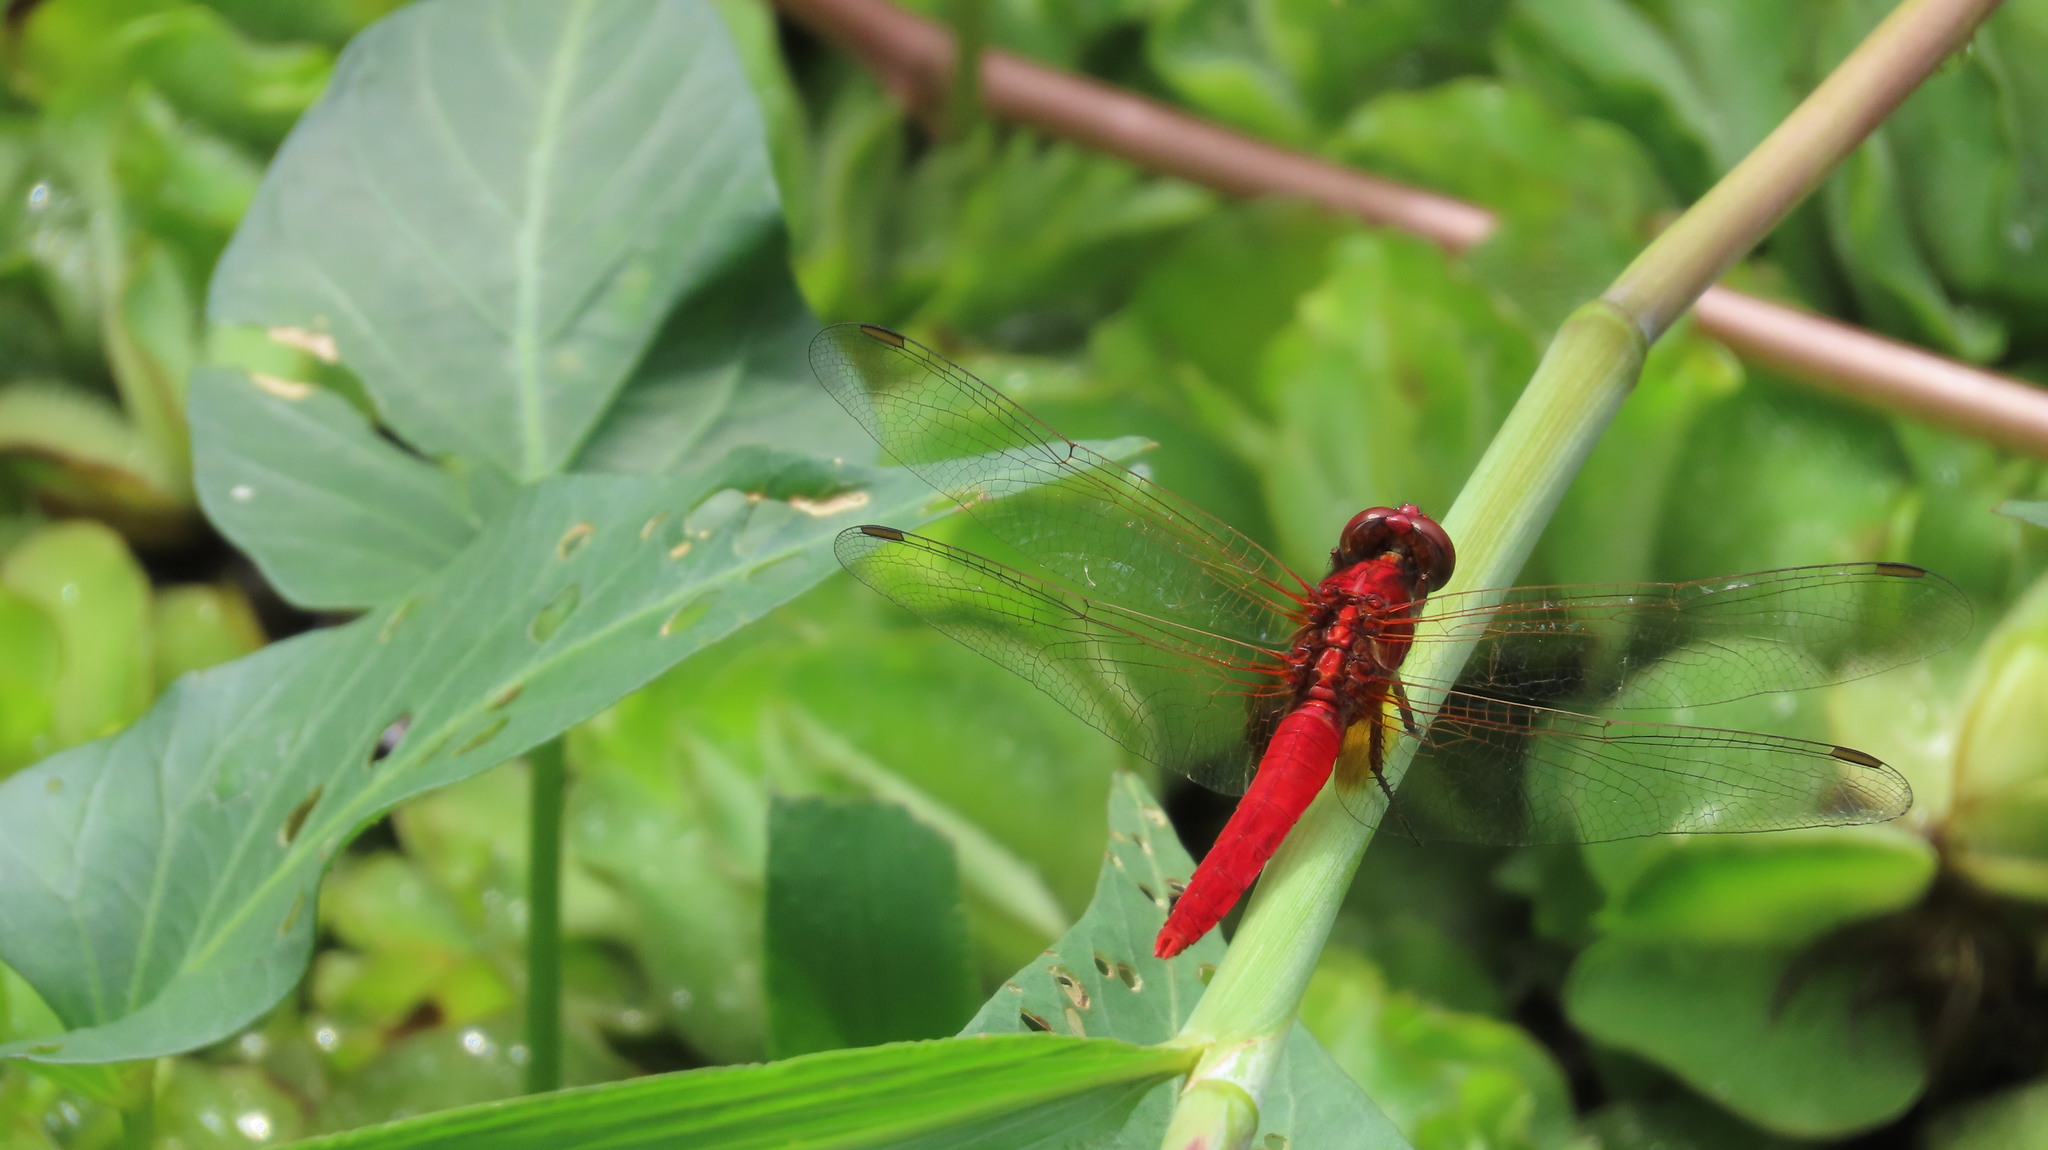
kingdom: Animalia
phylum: Arthropoda
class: Insecta
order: Odonata
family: Libellulidae
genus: Rhodothemis
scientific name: Rhodothemis rufa
